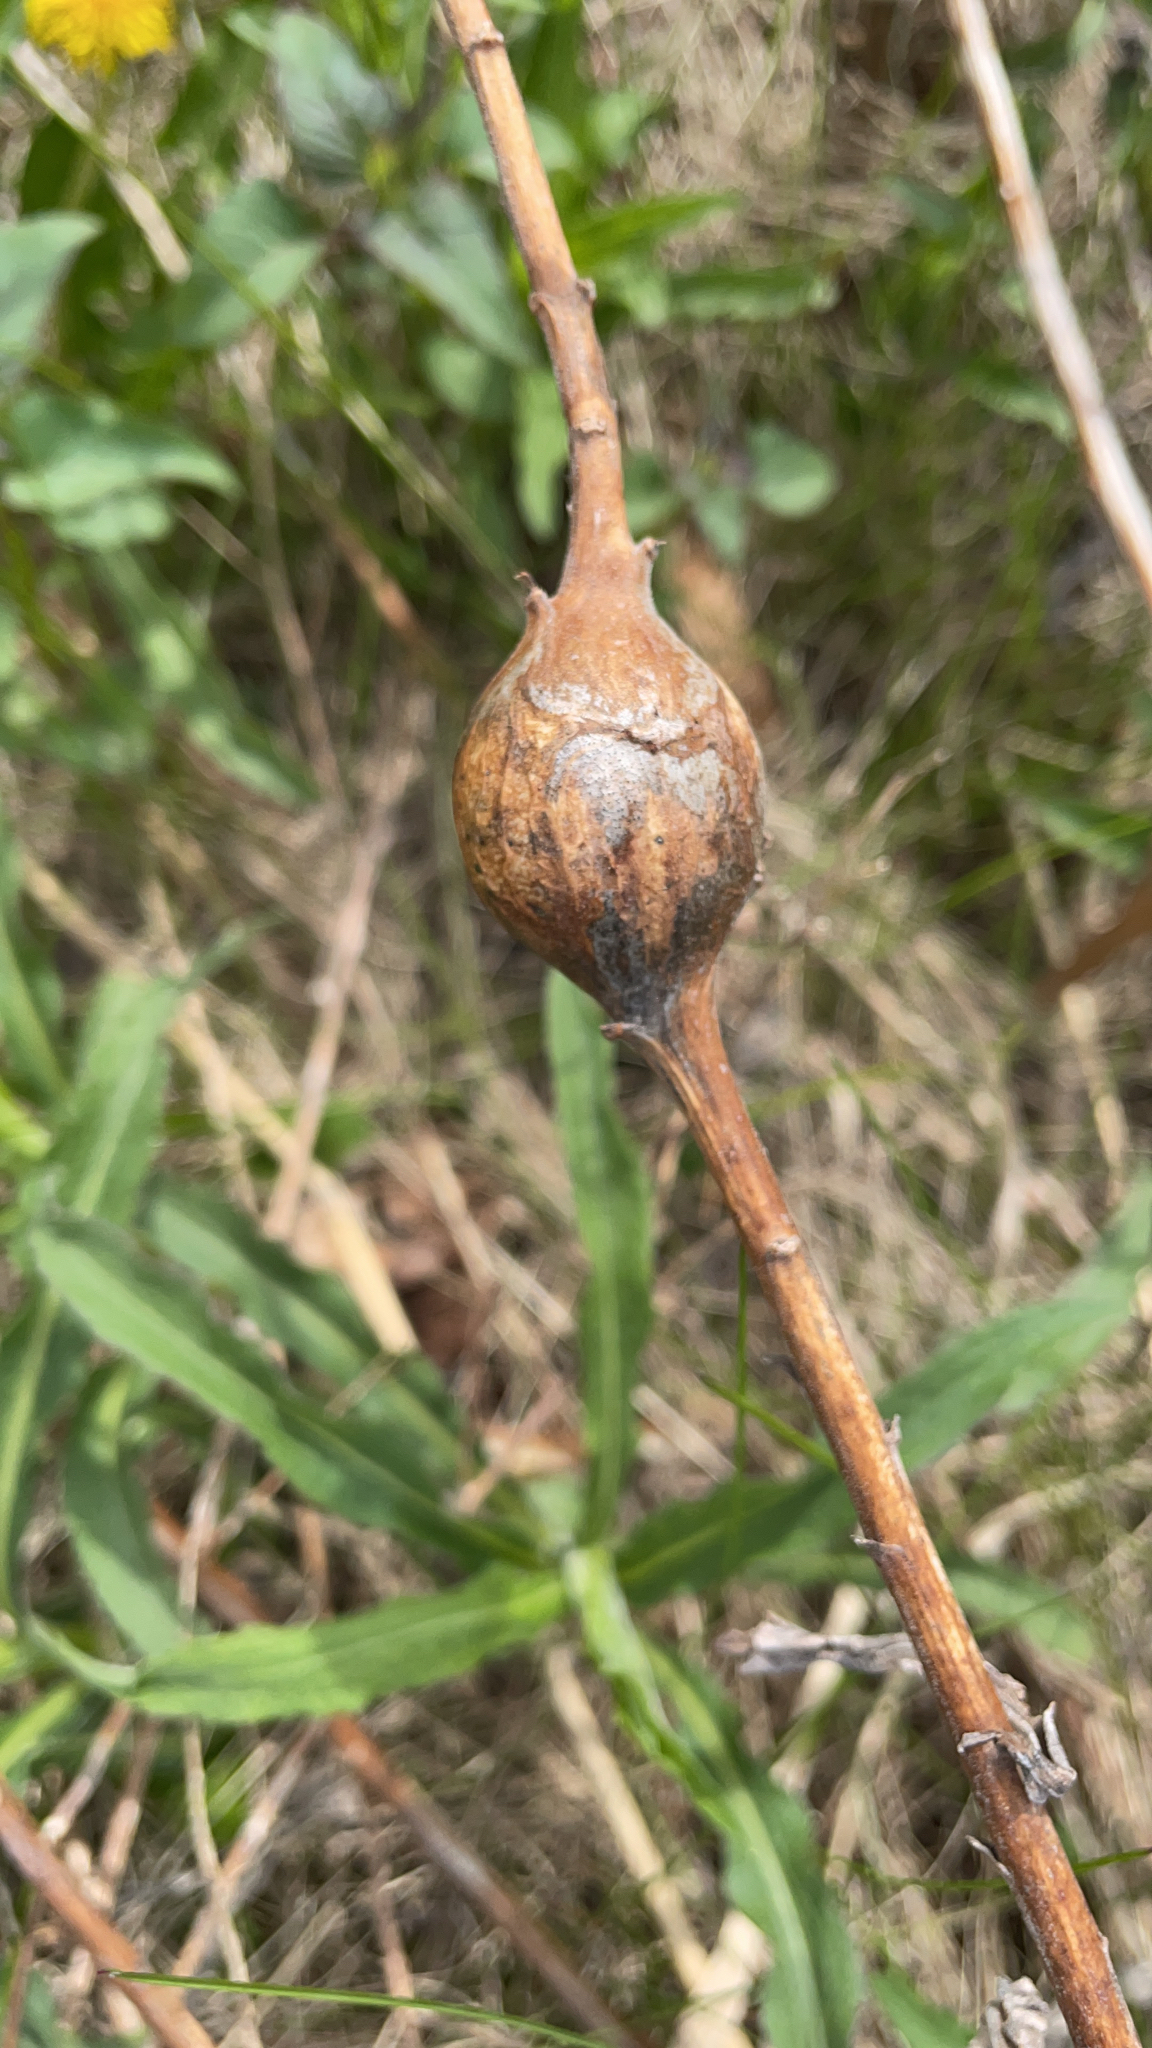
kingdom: Animalia
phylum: Arthropoda
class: Insecta
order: Diptera
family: Tephritidae
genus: Eurosta
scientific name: Eurosta solidaginis
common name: Goldenrod gall fly
